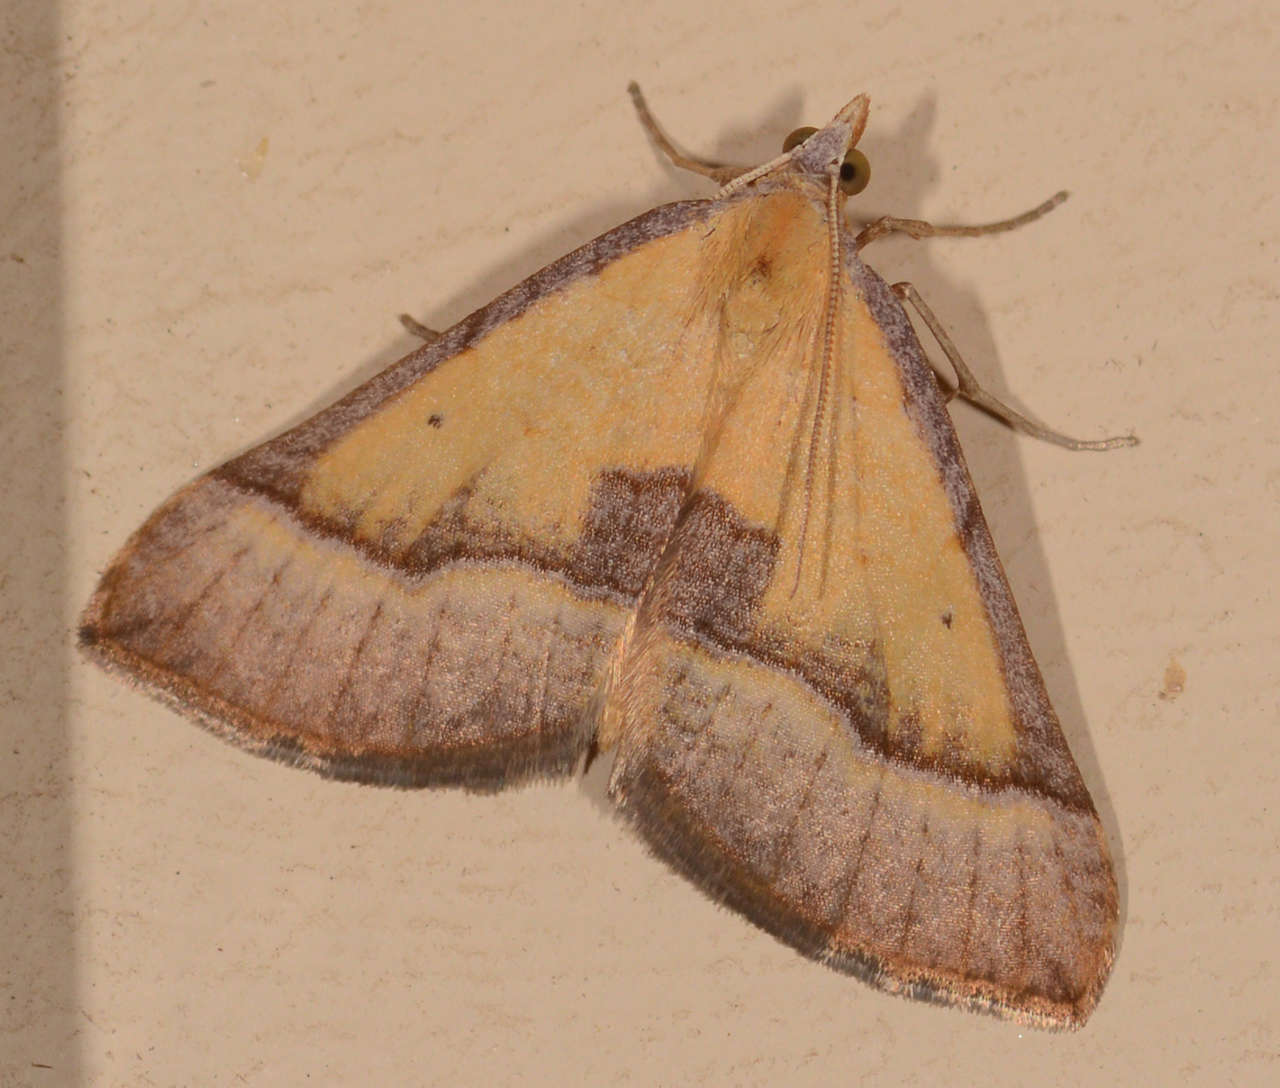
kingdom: Animalia
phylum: Arthropoda
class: Insecta
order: Lepidoptera
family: Geometridae
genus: Anachloris
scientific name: Anachloris subochraria
